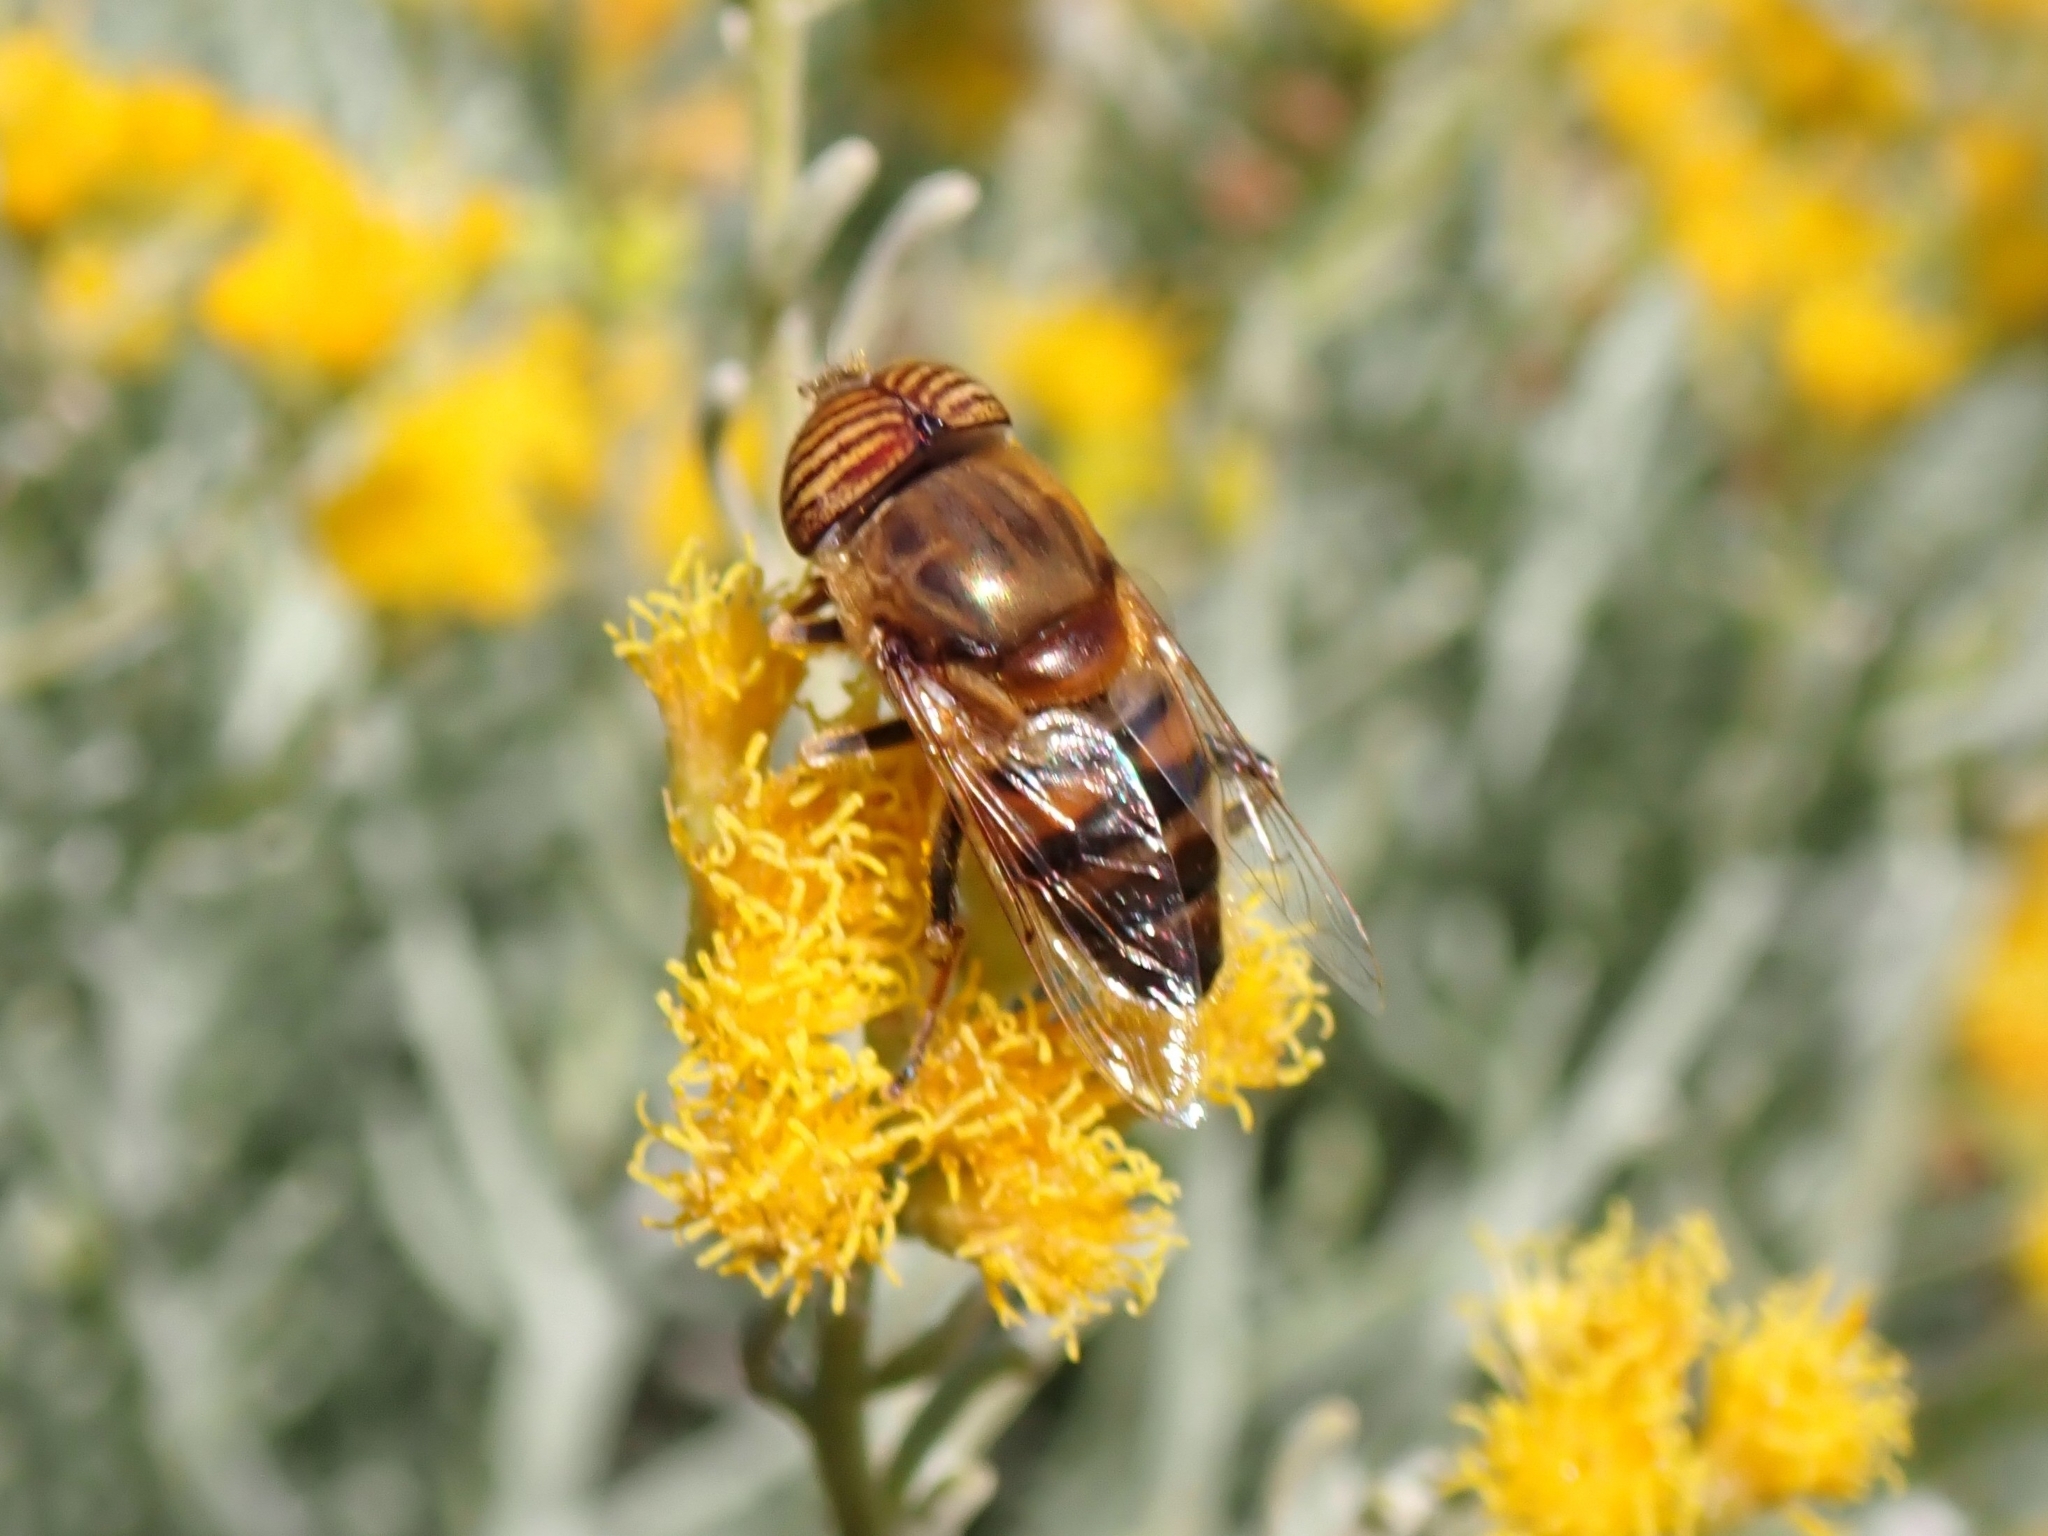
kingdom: Animalia
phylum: Arthropoda
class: Insecta
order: Diptera
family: Syrphidae
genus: Eristalinus
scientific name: Eristalinus taeniops
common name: Syrphid fly
